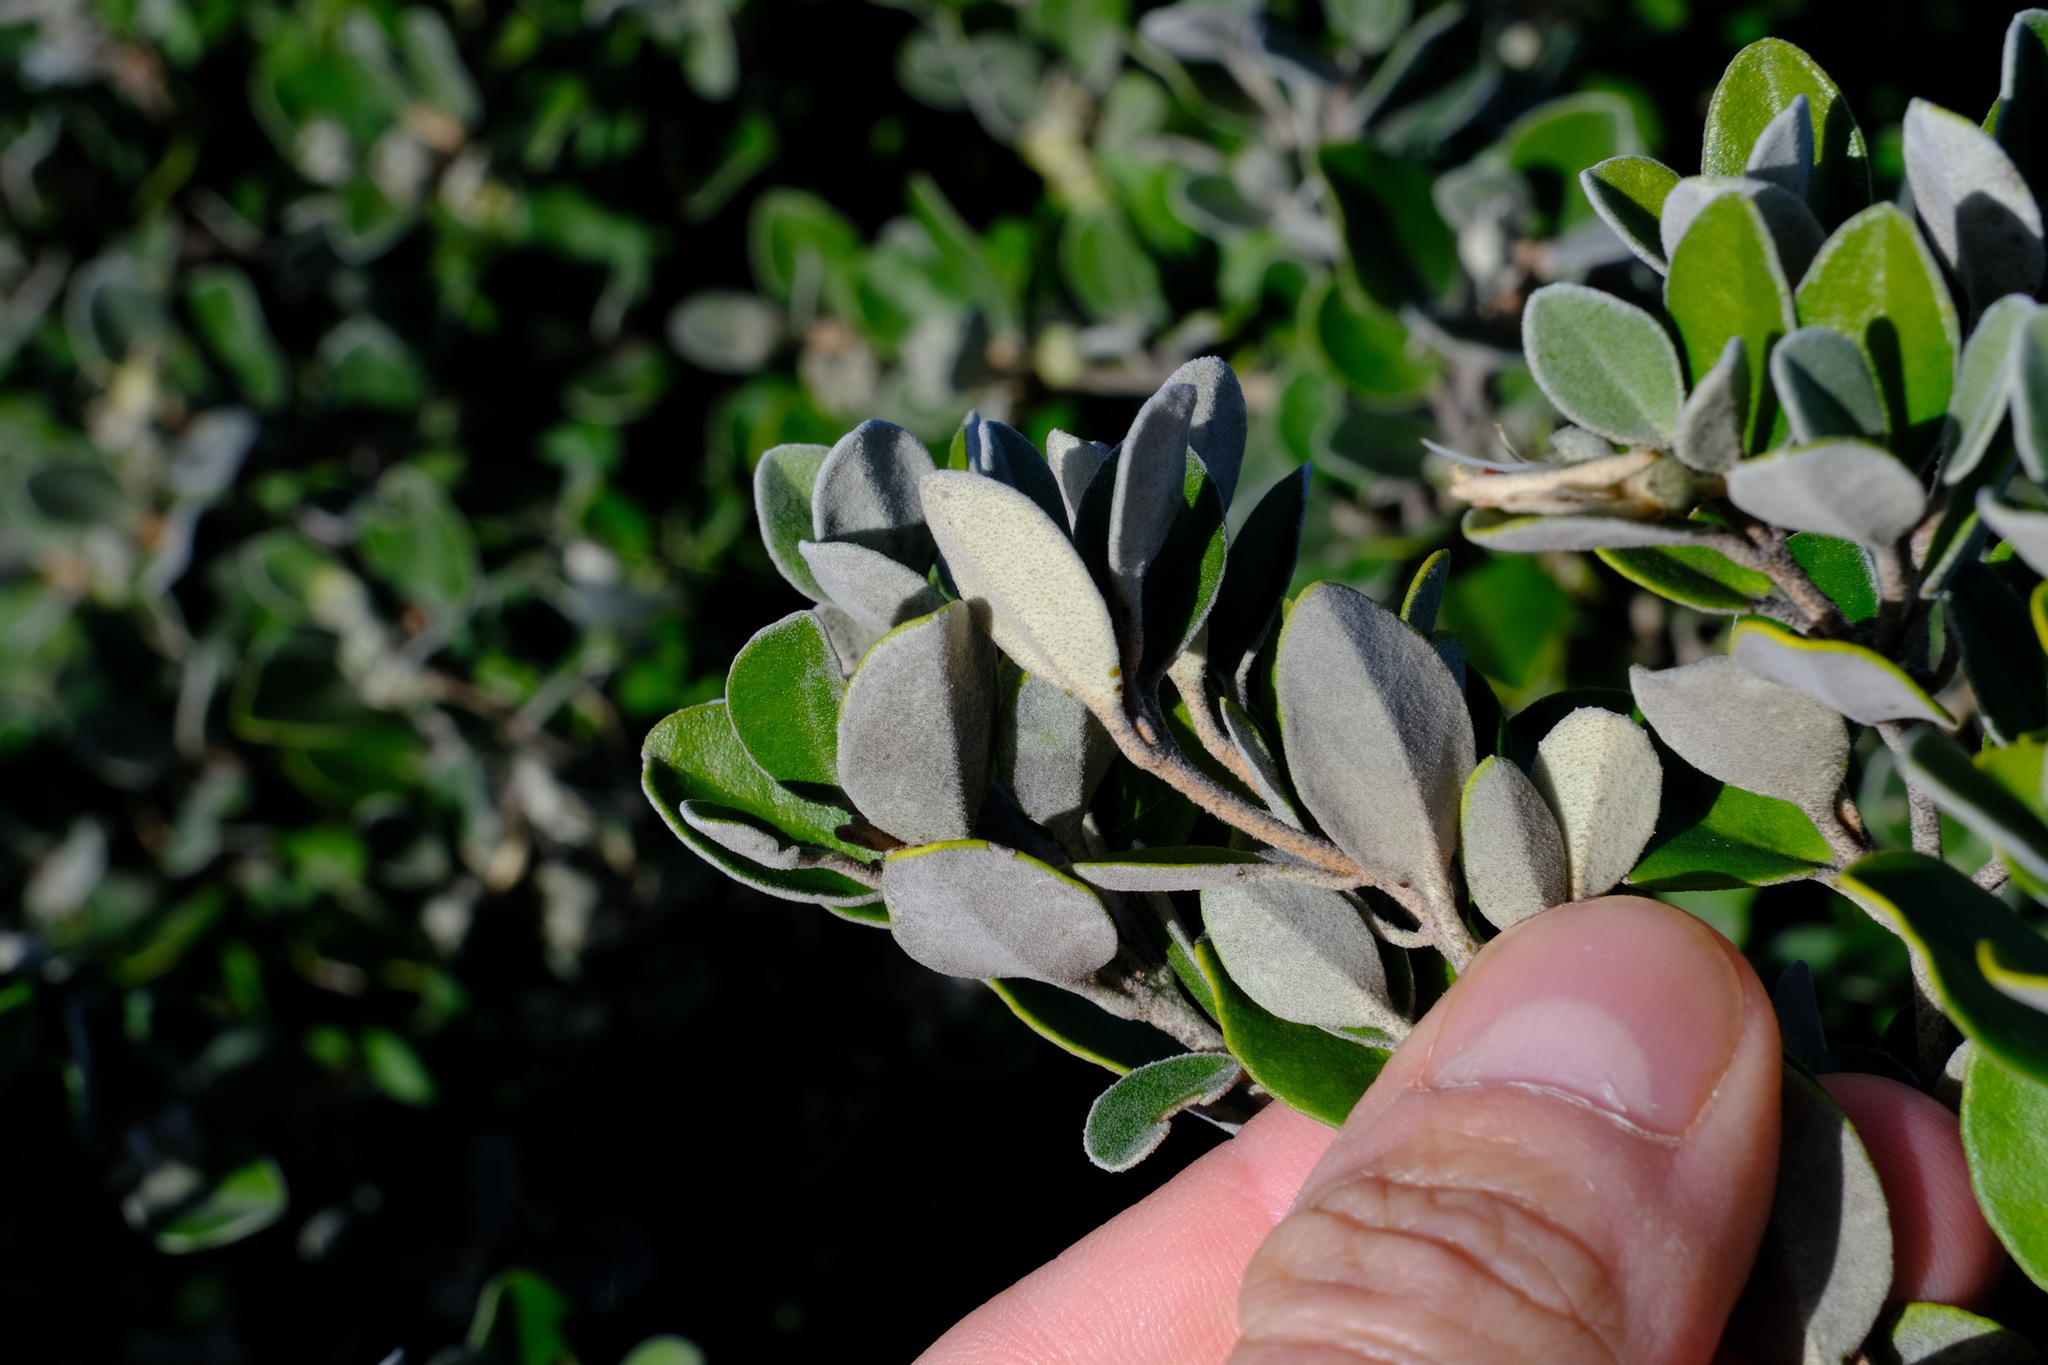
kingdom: Plantae
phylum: Tracheophyta
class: Magnoliopsida
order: Sapindales
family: Rutaceae
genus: Correa
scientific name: Correa alba
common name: White correa
